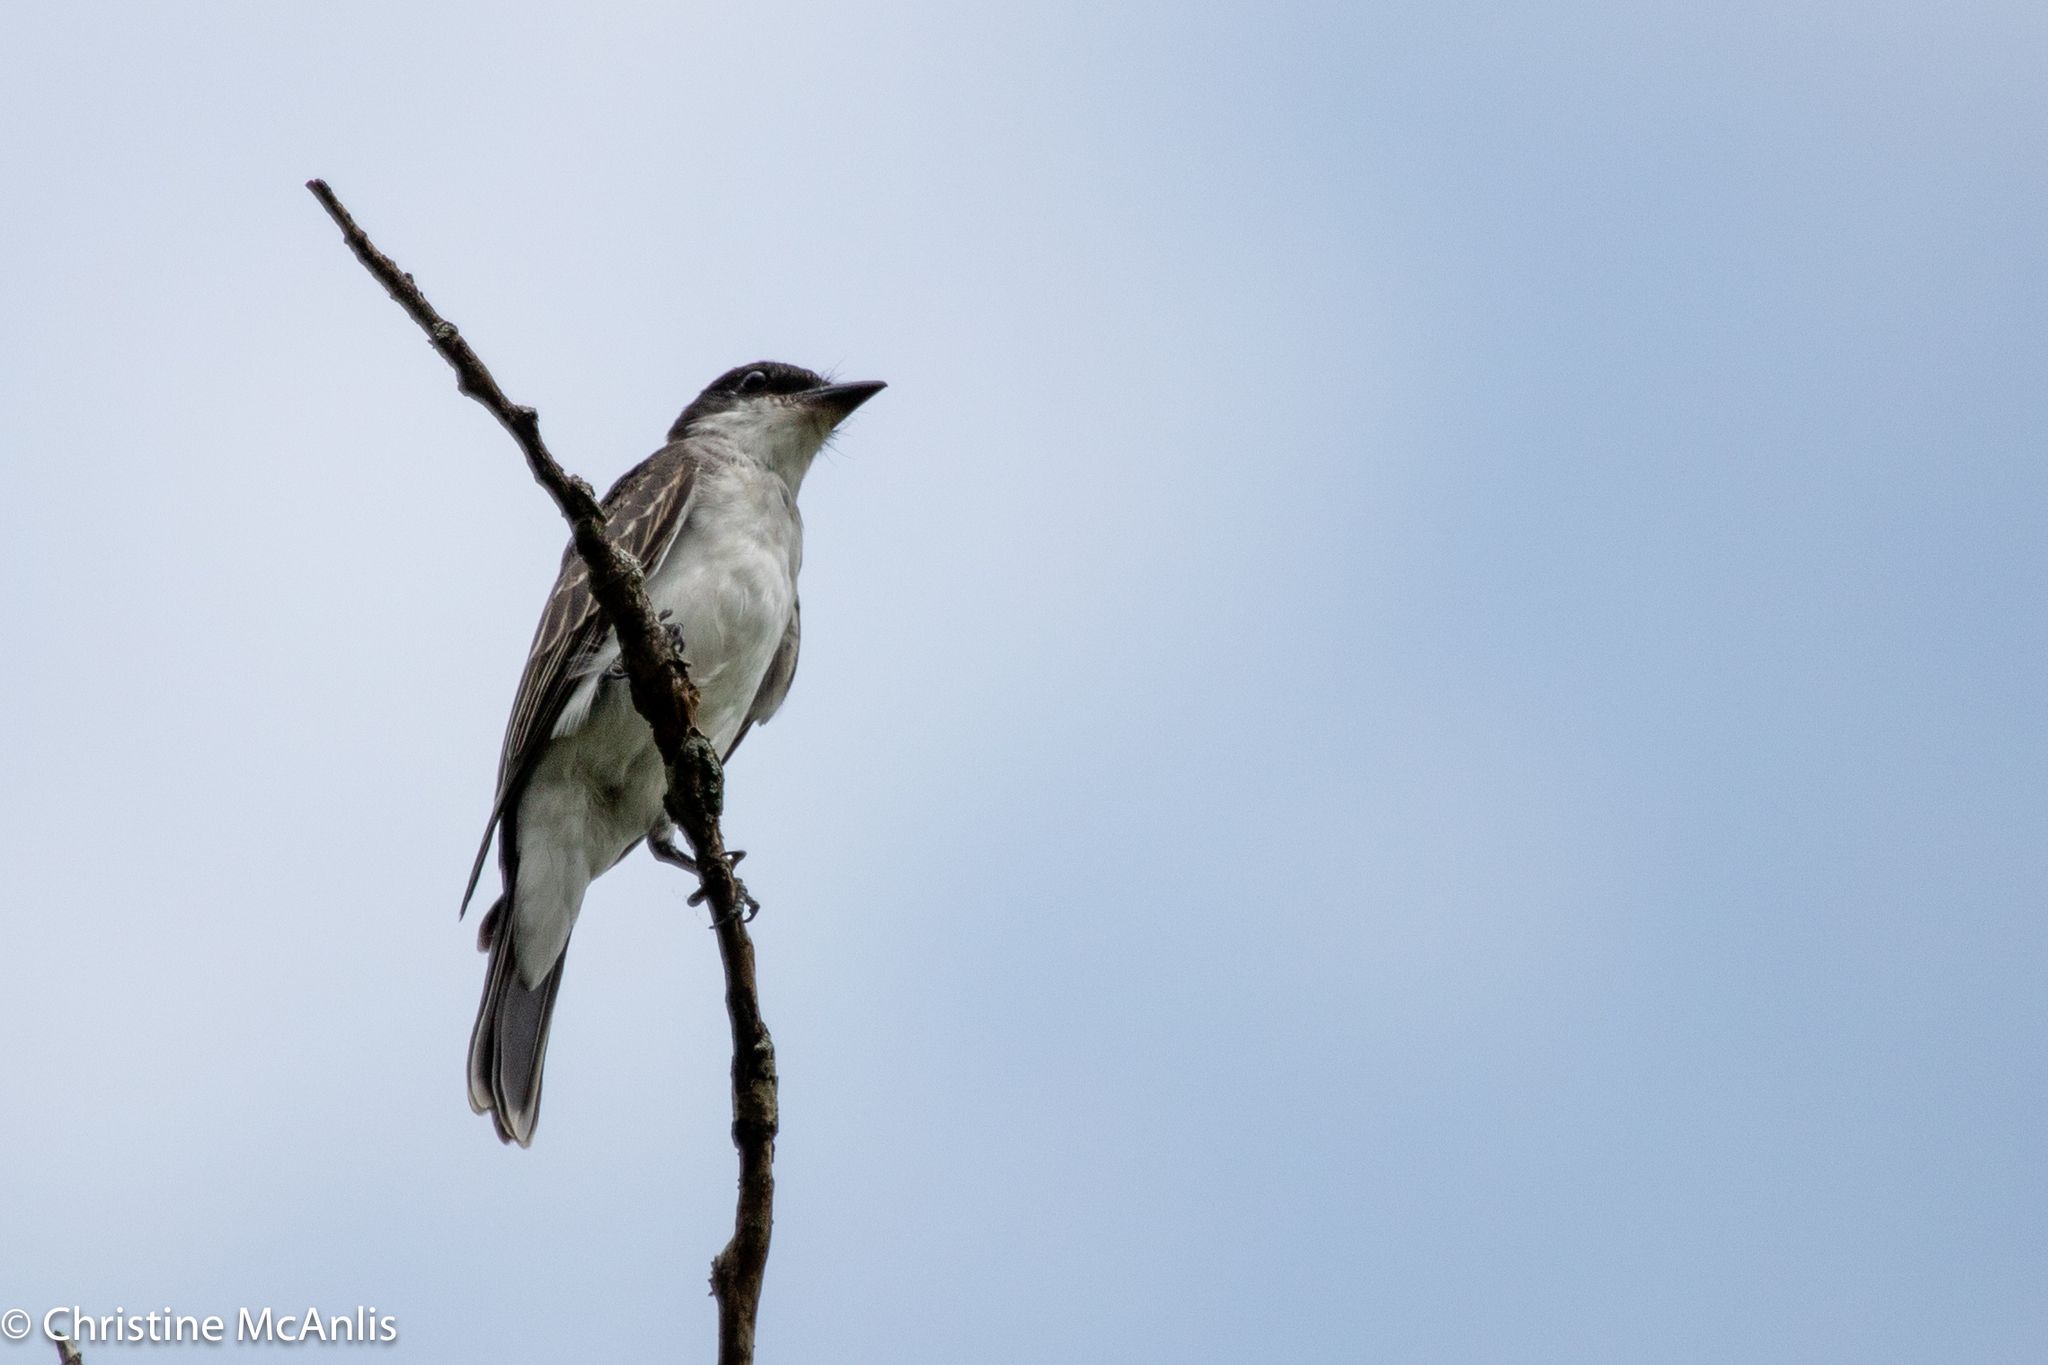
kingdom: Animalia
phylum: Chordata
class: Aves
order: Passeriformes
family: Tyrannidae
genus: Tyrannus
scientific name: Tyrannus tyrannus
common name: Eastern kingbird
